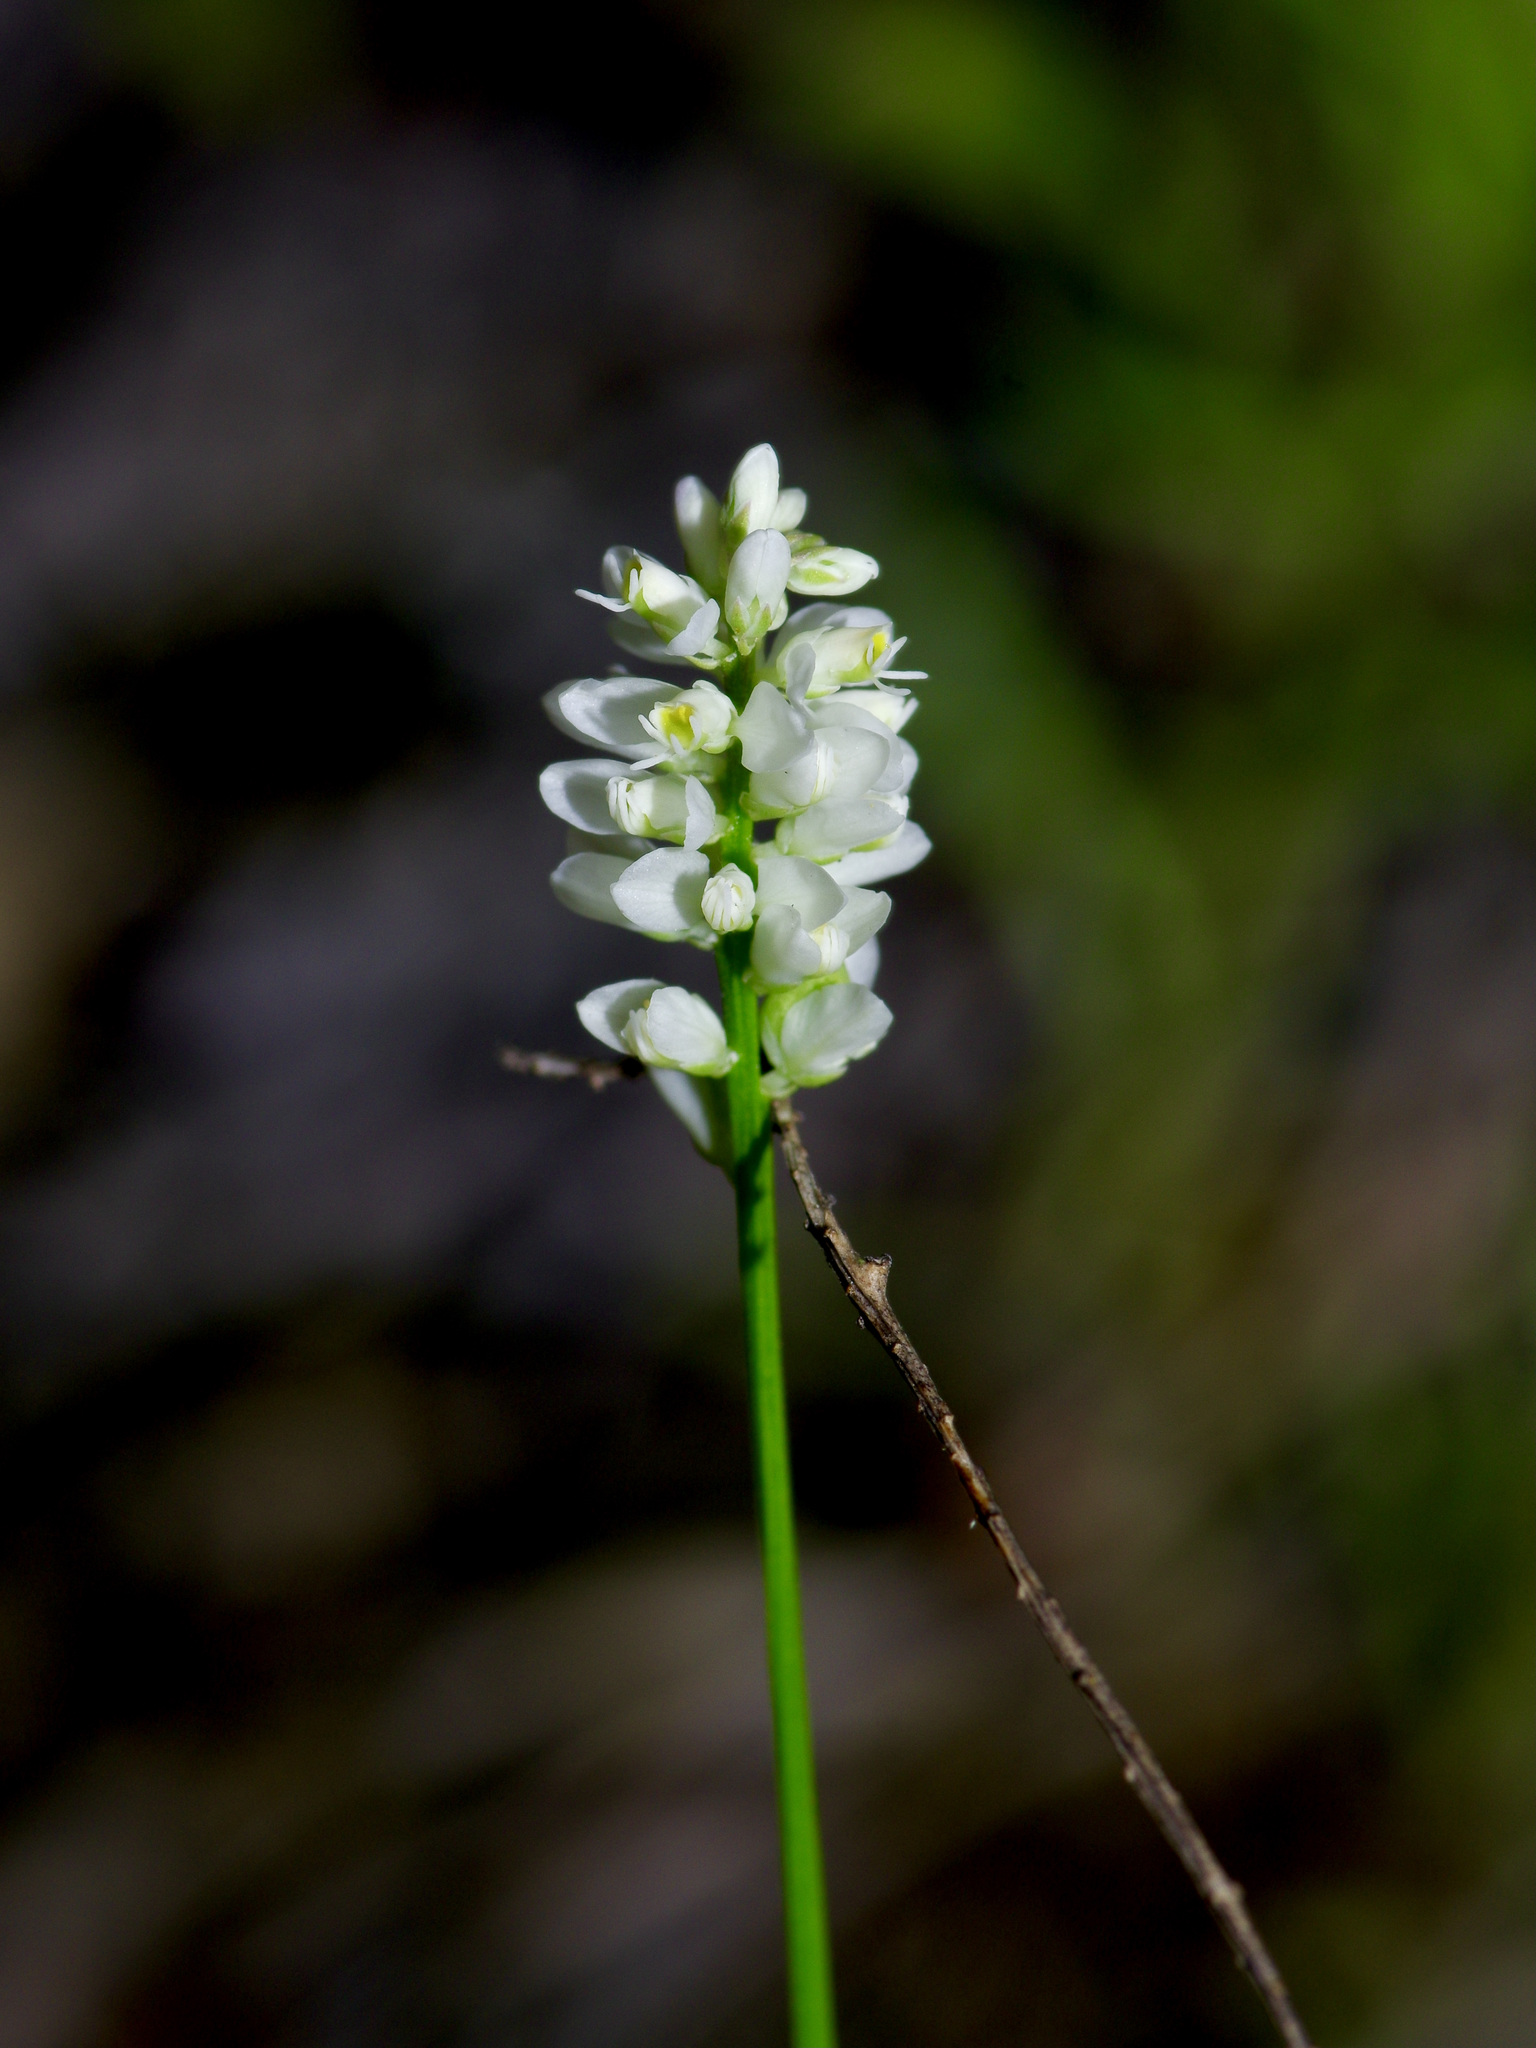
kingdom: Plantae
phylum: Tracheophyta
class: Magnoliopsida
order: Fabales
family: Polygalaceae
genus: Polygala
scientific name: Polygala alba
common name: White milkwort
